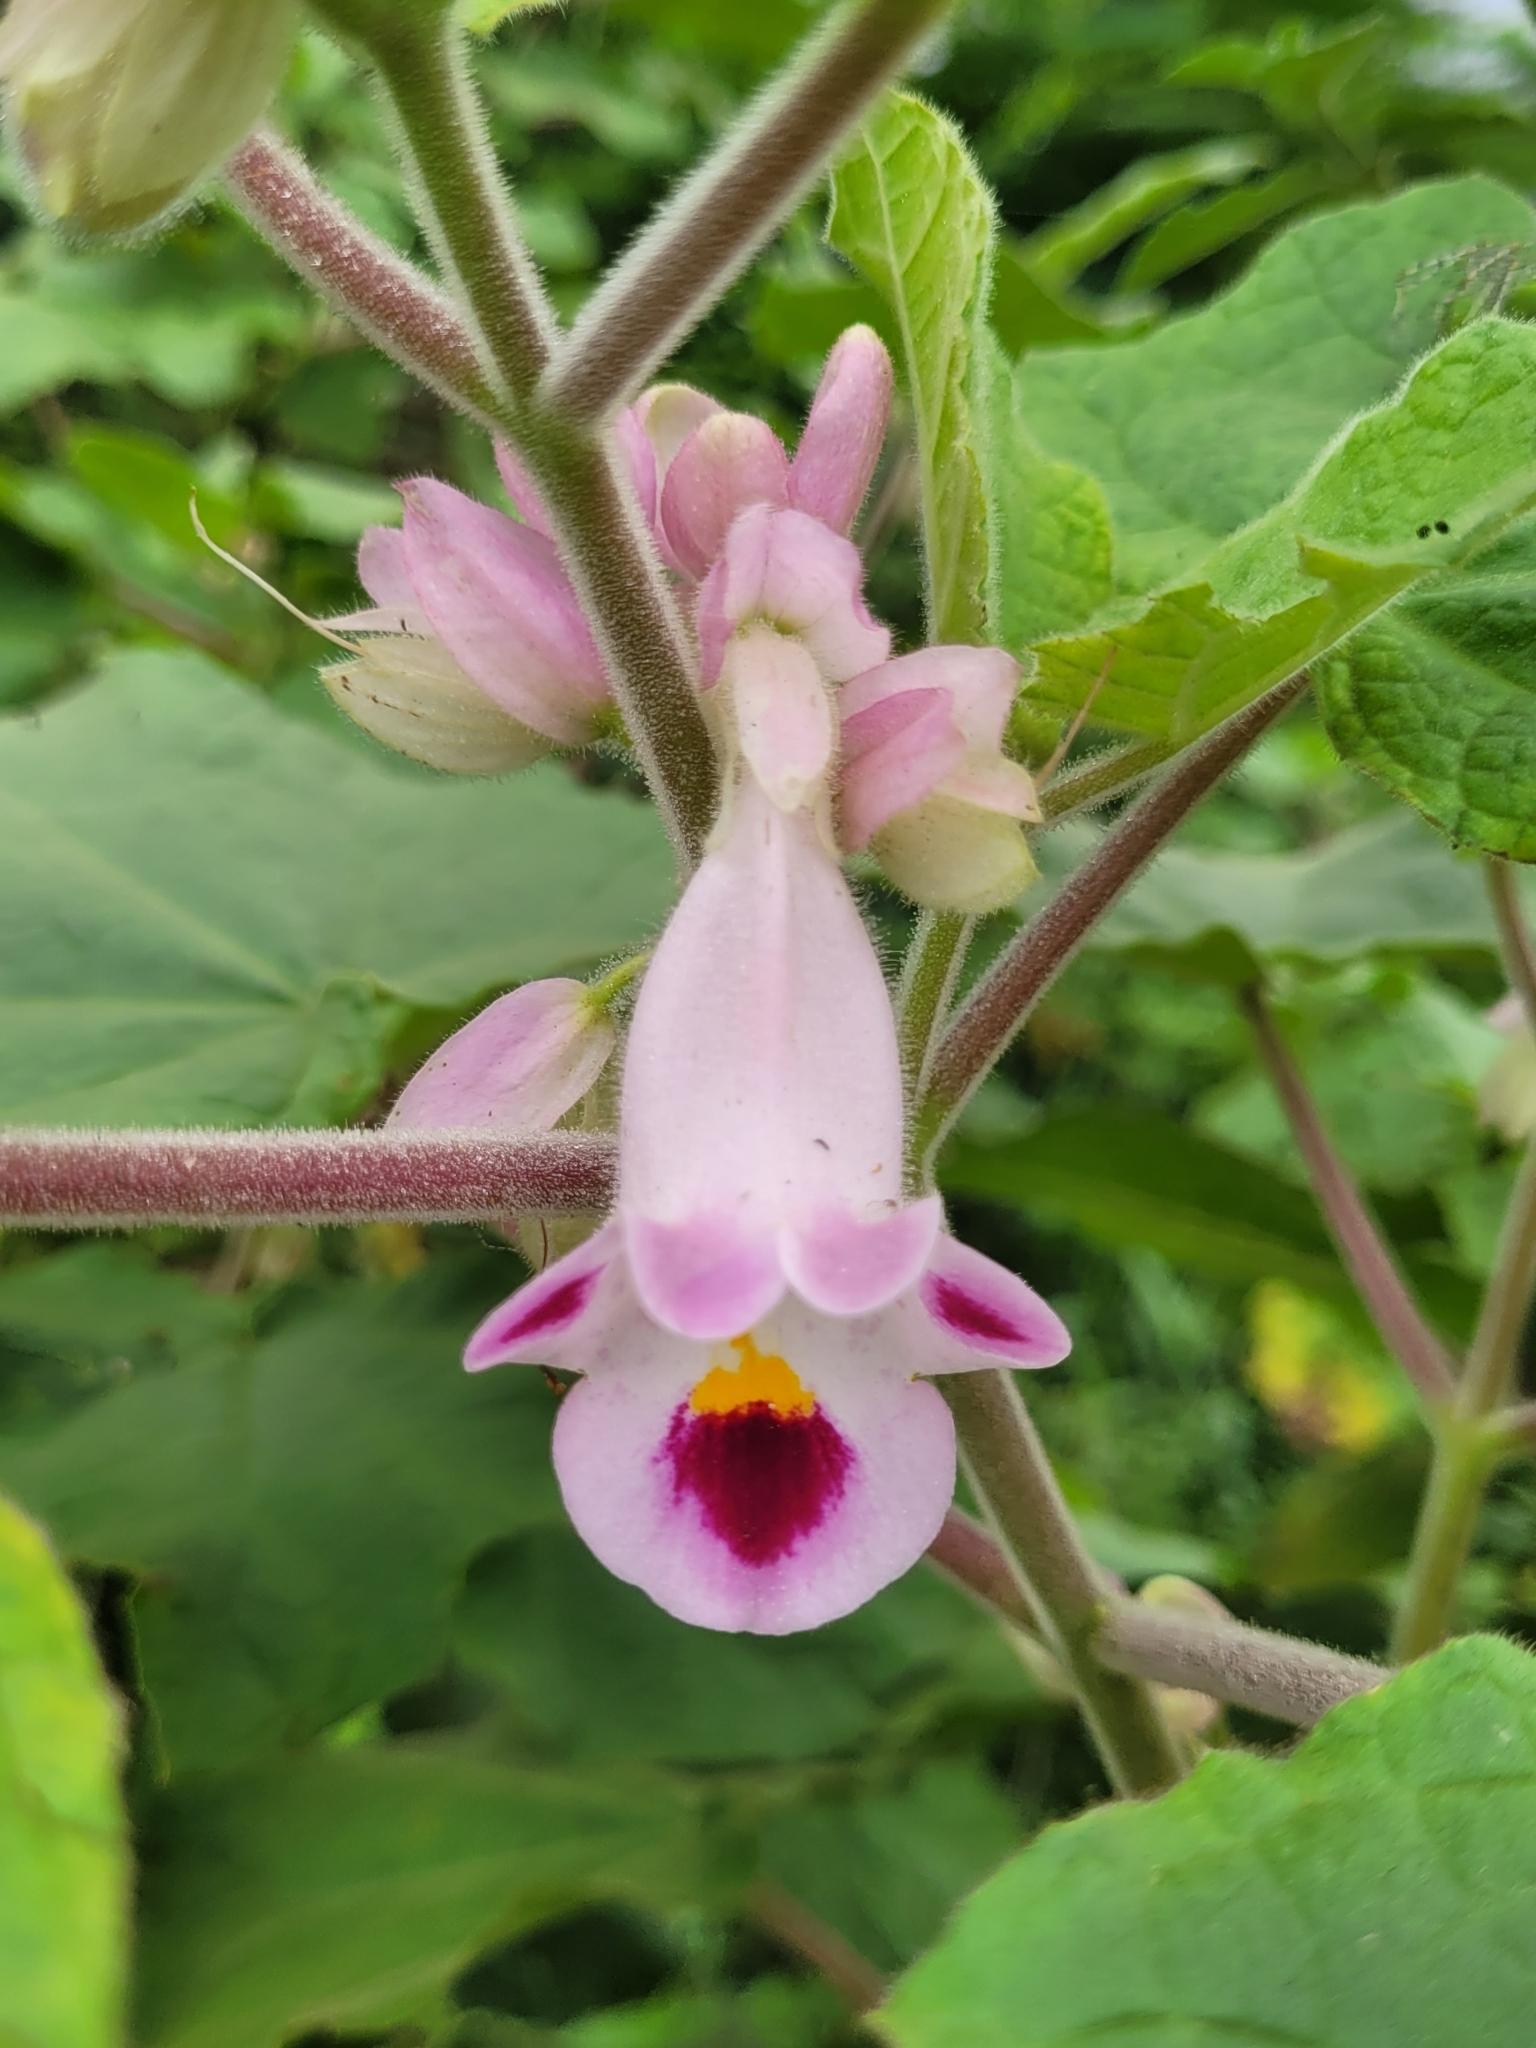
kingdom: Plantae
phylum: Tracheophyta
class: Magnoliopsida
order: Lamiales
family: Martyniaceae
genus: Martynia
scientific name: Martynia annua
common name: Tiger's-claw
